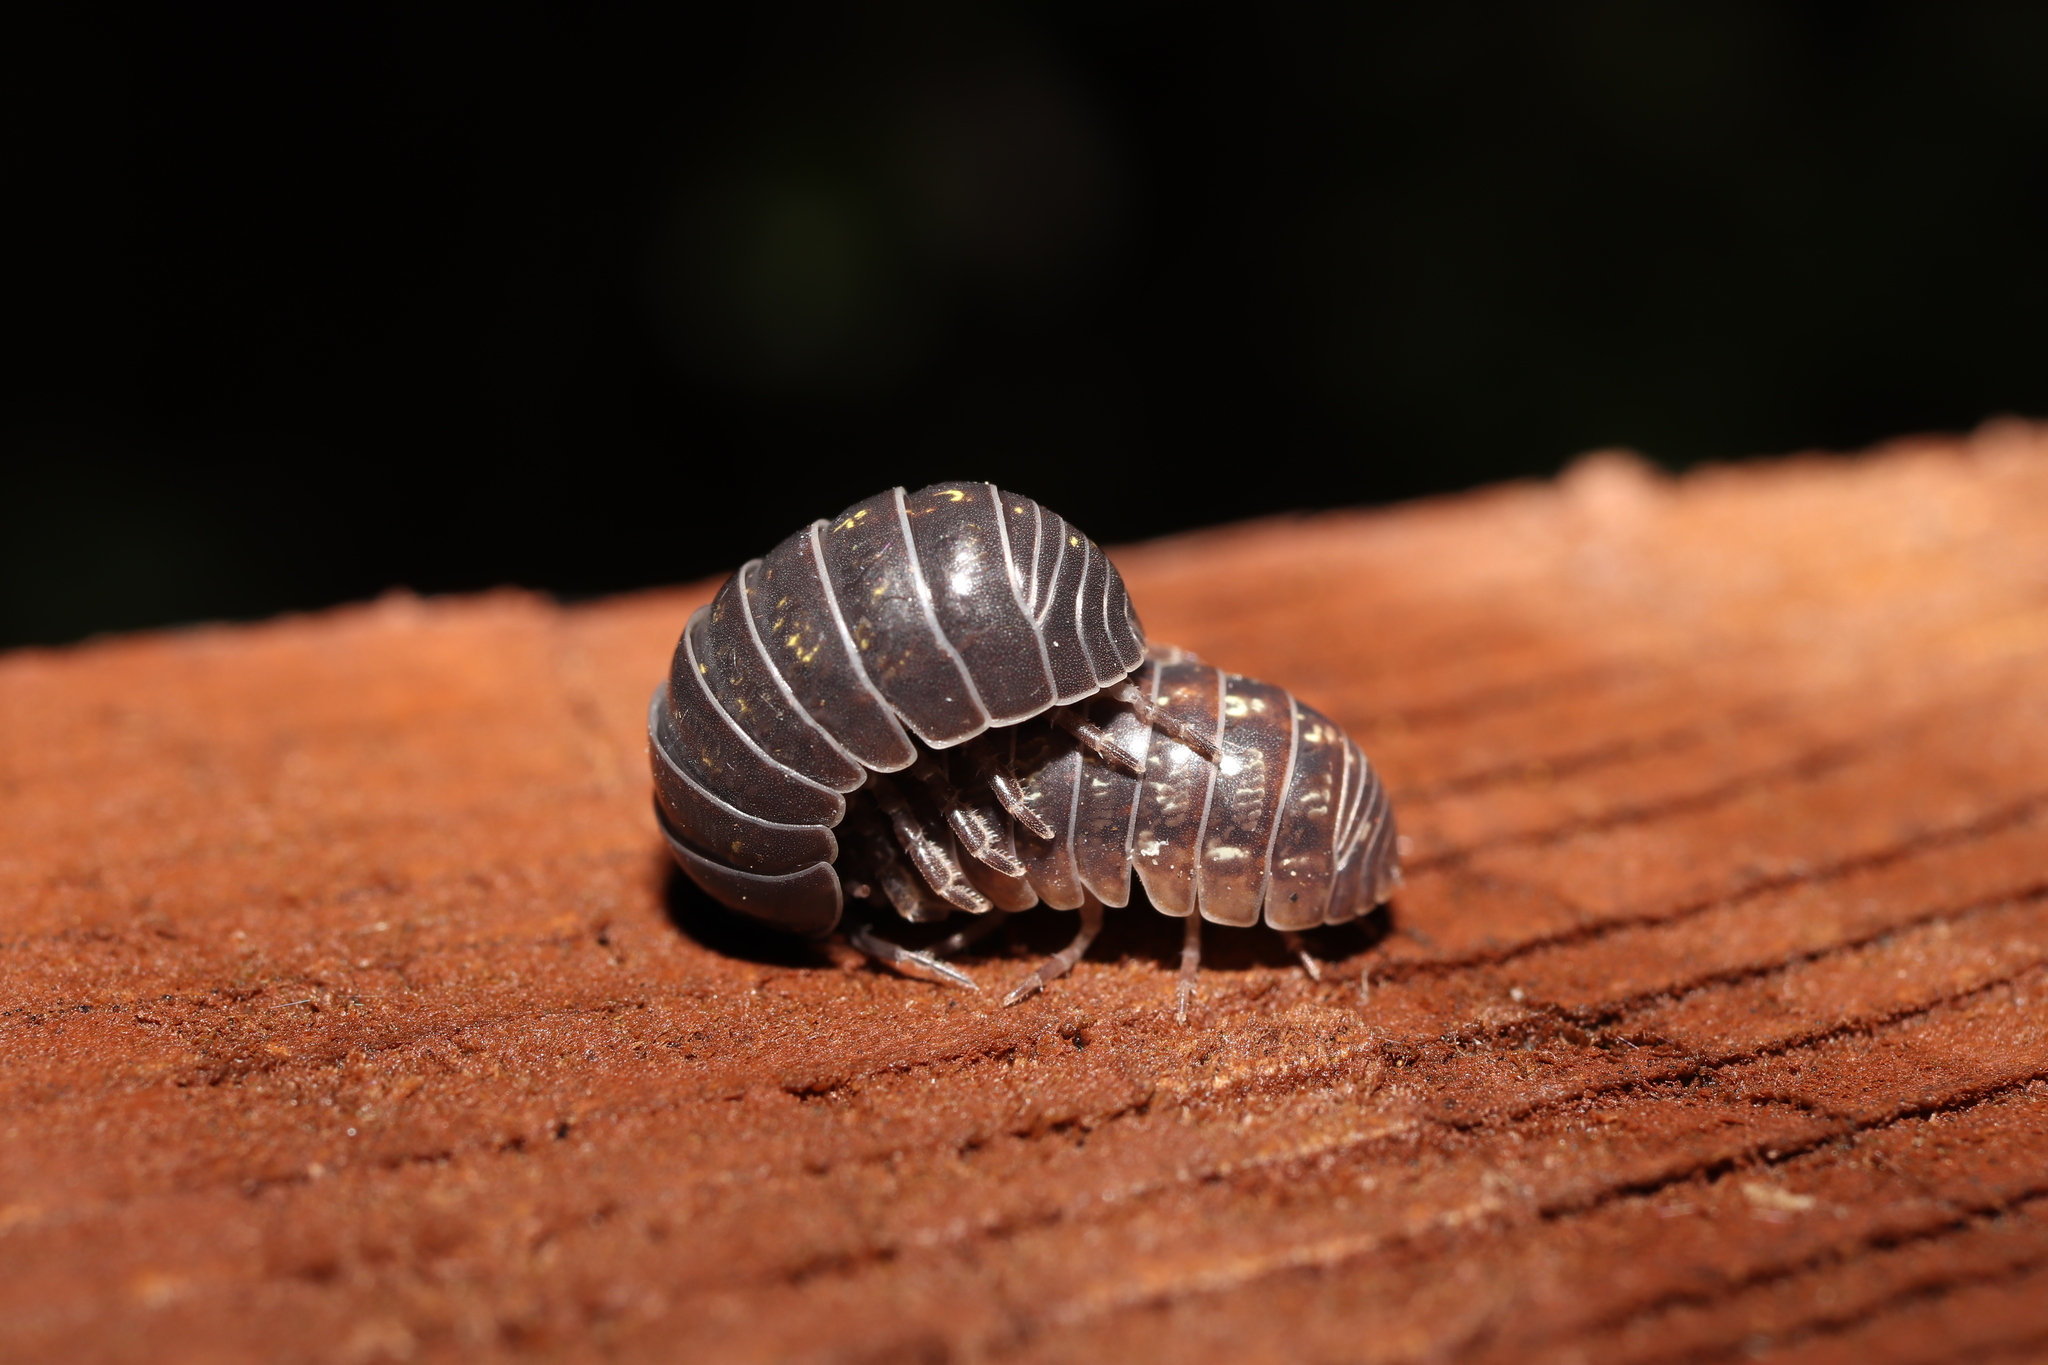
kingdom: Animalia
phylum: Arthropoda
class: Malacostraca
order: Isopoda
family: Armadillidiidae
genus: Armadillidium
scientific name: Armadillidium vulgare
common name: Common pill woodlouse
